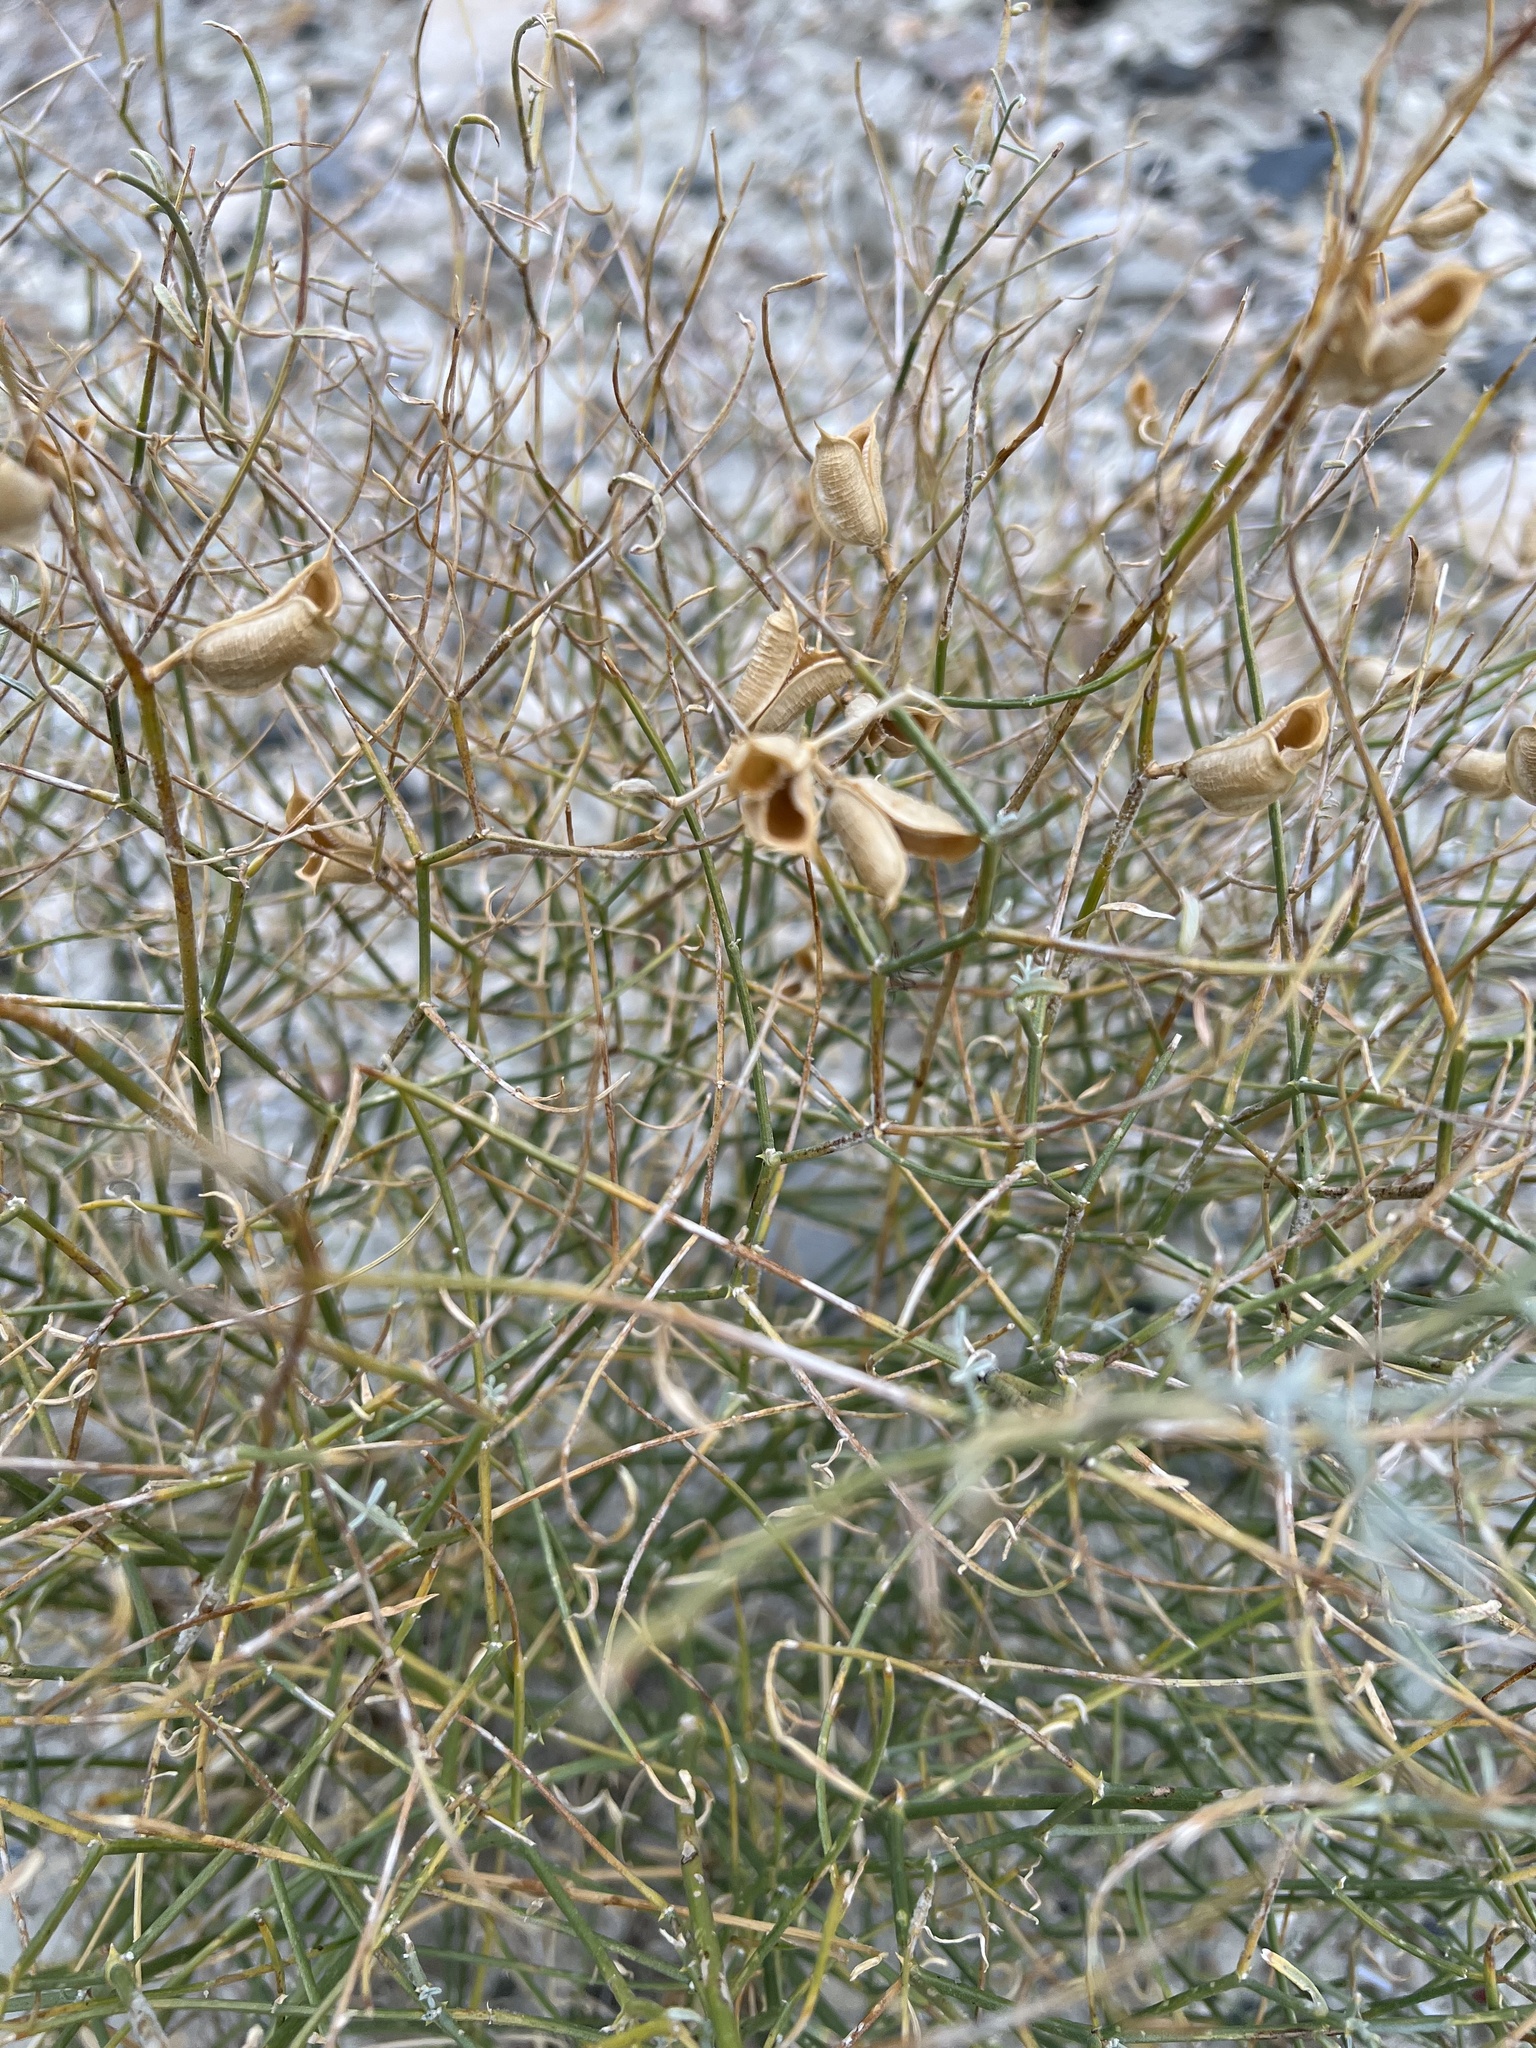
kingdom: Plantae
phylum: Tracheophyta
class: Magnoliopsida
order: Fabales
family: Fabaceae
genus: Astragalus
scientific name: Astragalus serenoi
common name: Naked milk-vetch
